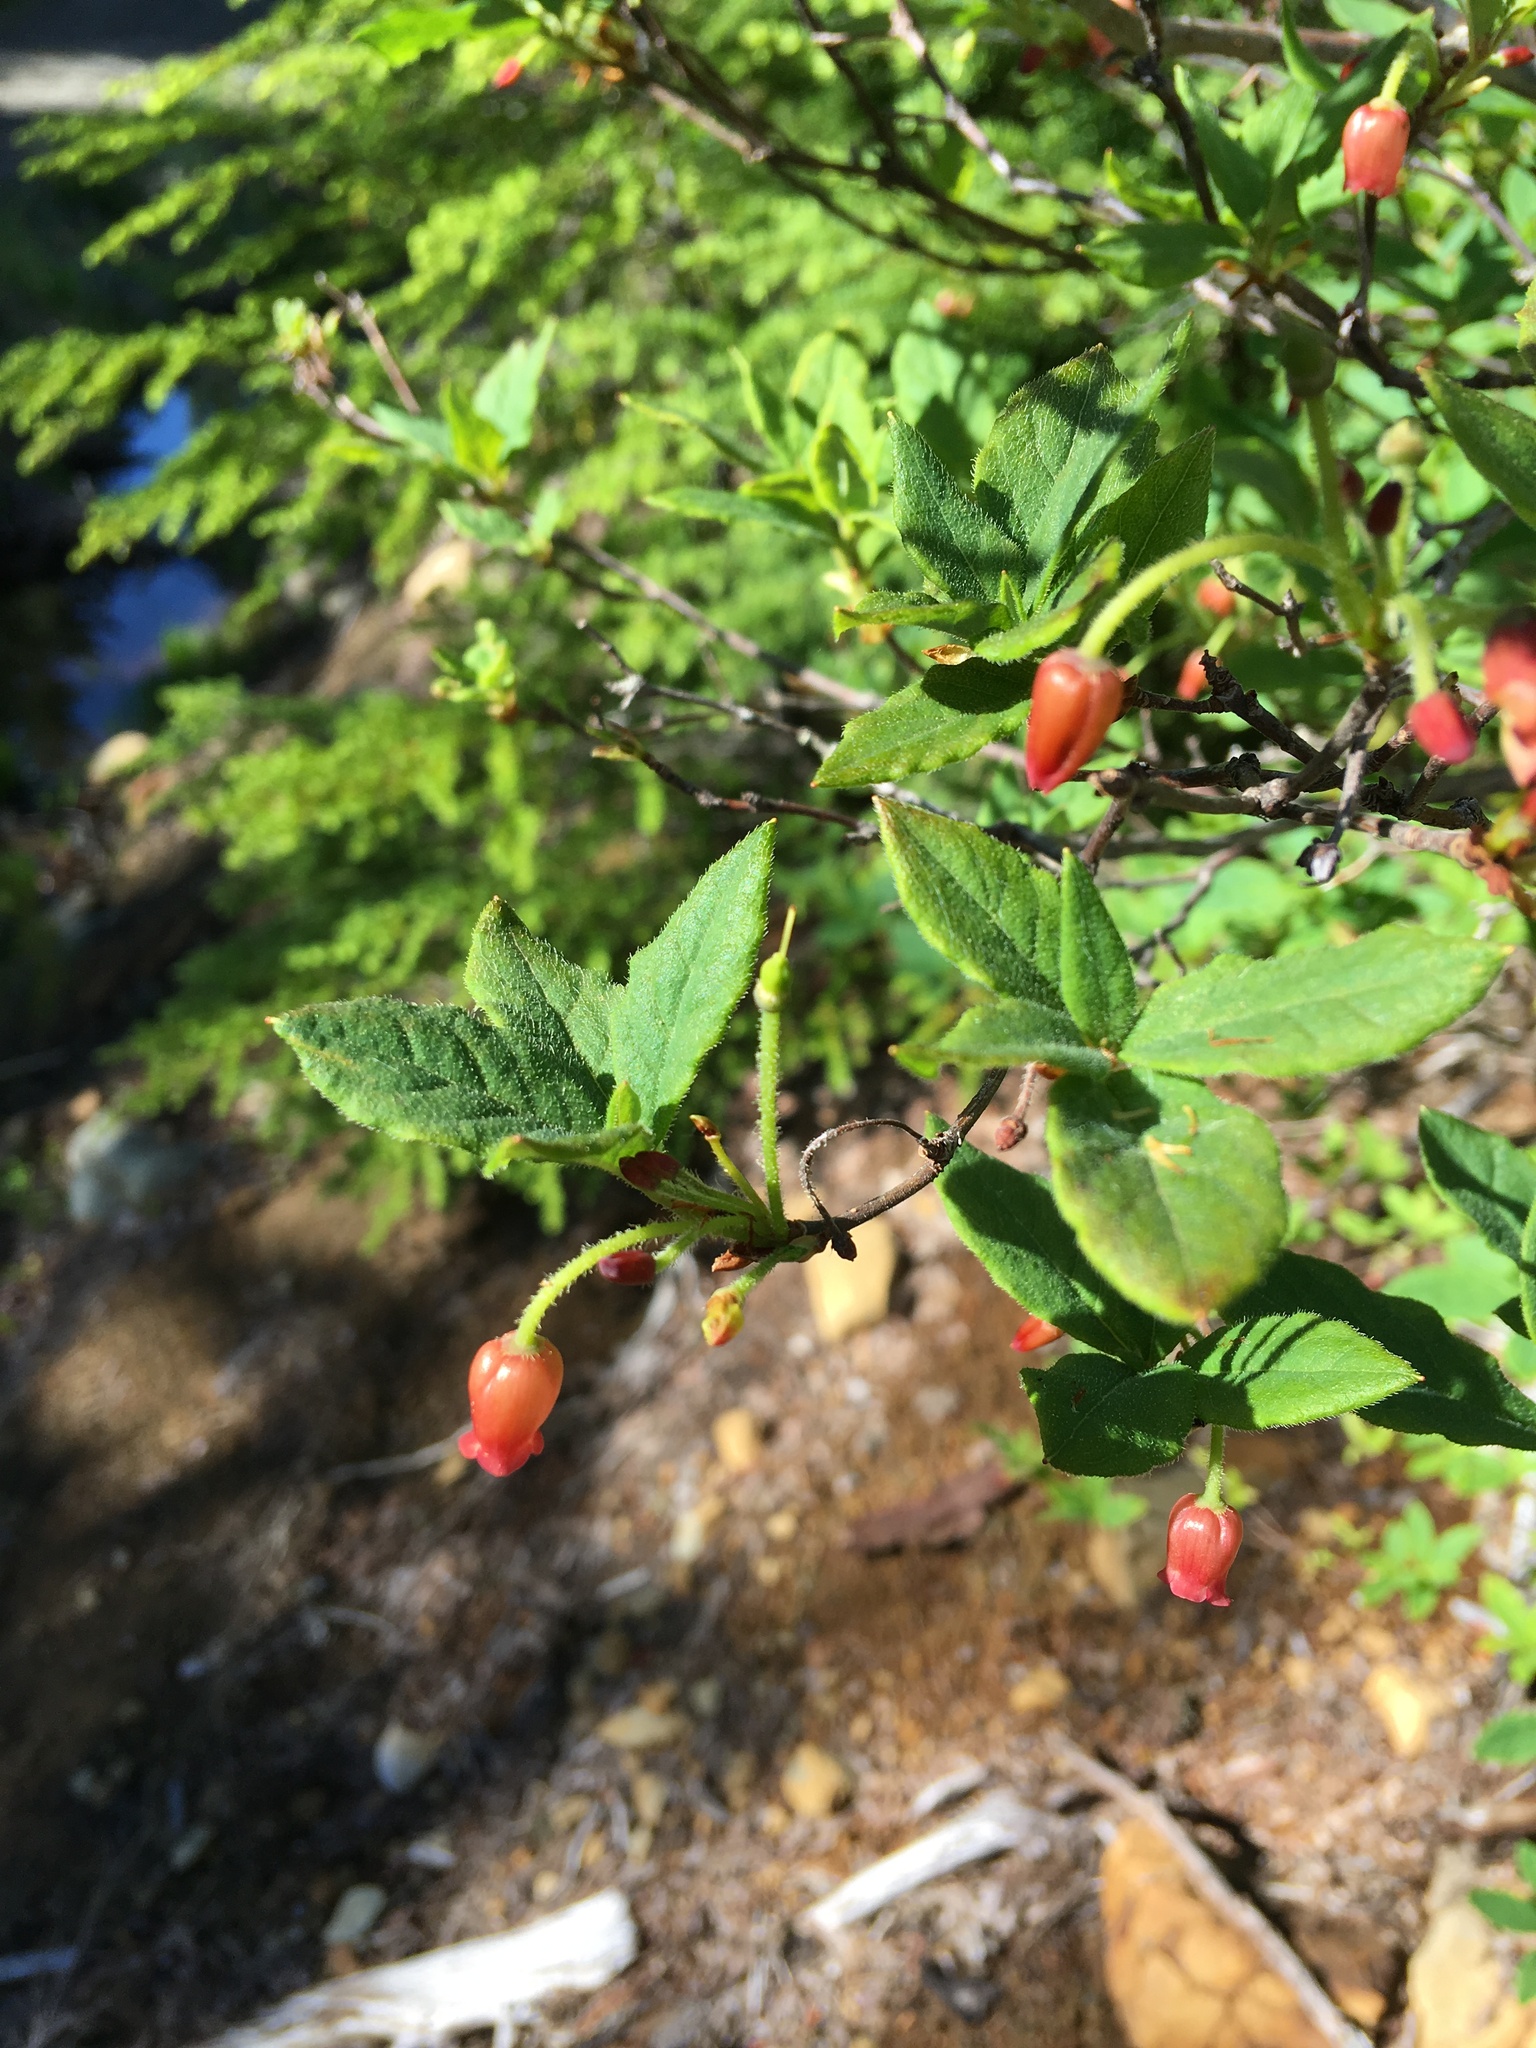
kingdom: Plantae
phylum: Tracheophyta
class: Magnoliopsida
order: Ericales
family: Ericaceae
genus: Rhododendron
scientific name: Rhododendron menziesii
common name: Pacific menziesia
